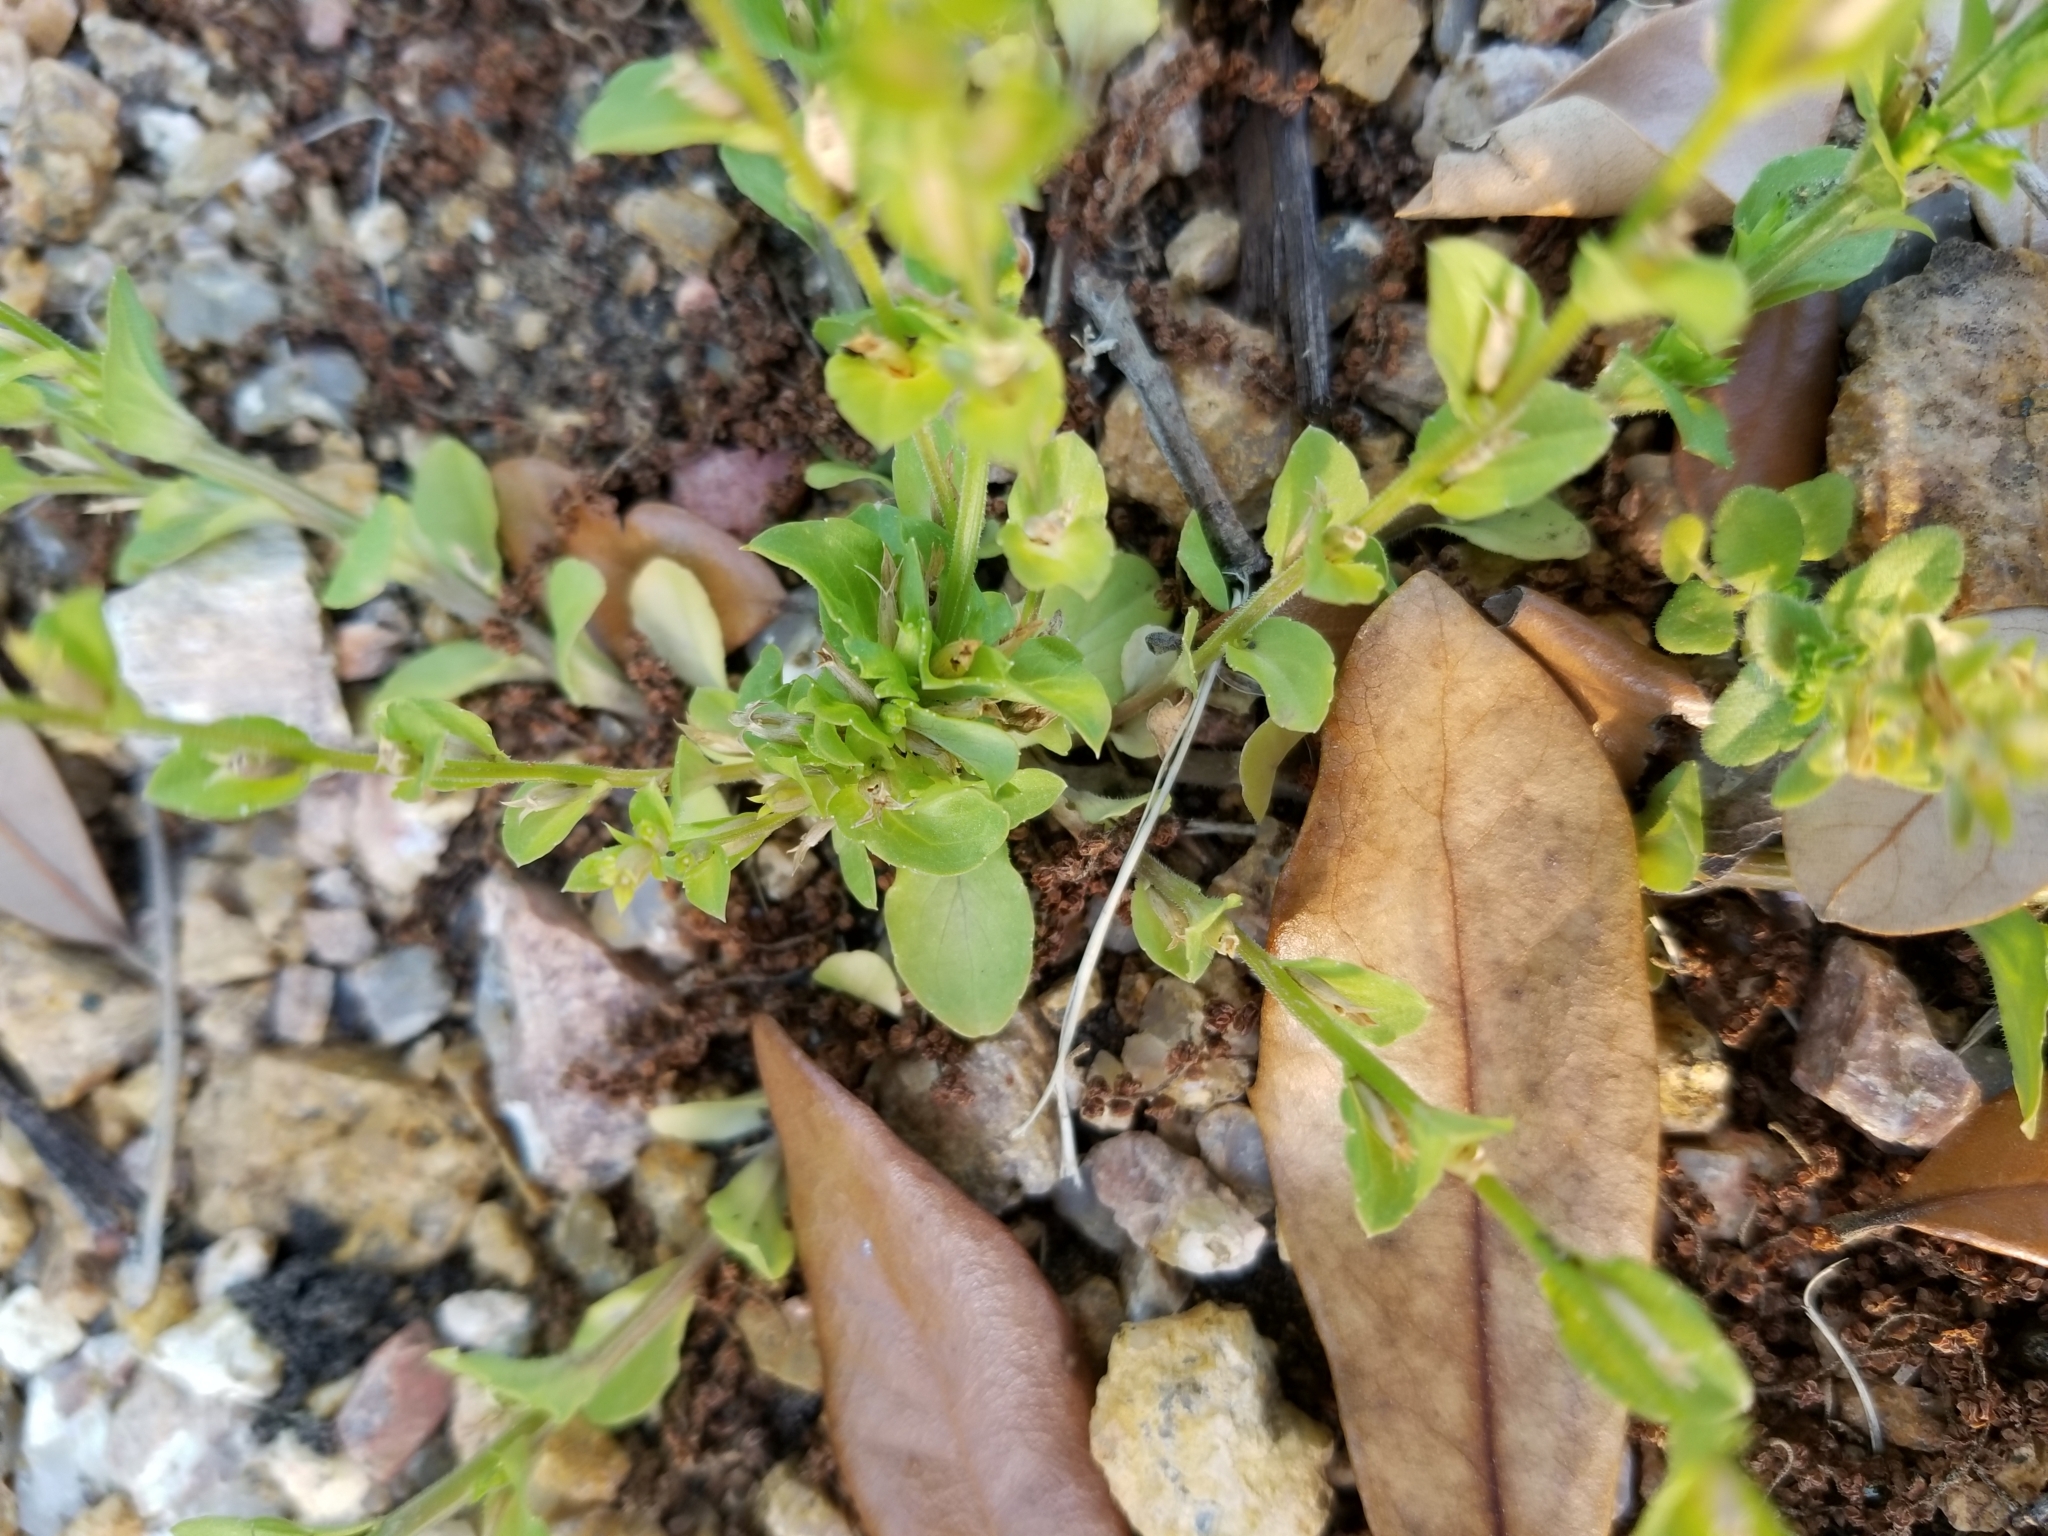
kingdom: Plantae
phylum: Tracheophyta
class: Magnoliopsida
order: Asterales
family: Campanulaceae
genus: Triodanis
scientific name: Triodanis perfoliata
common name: Clasping venus' looking-glass
